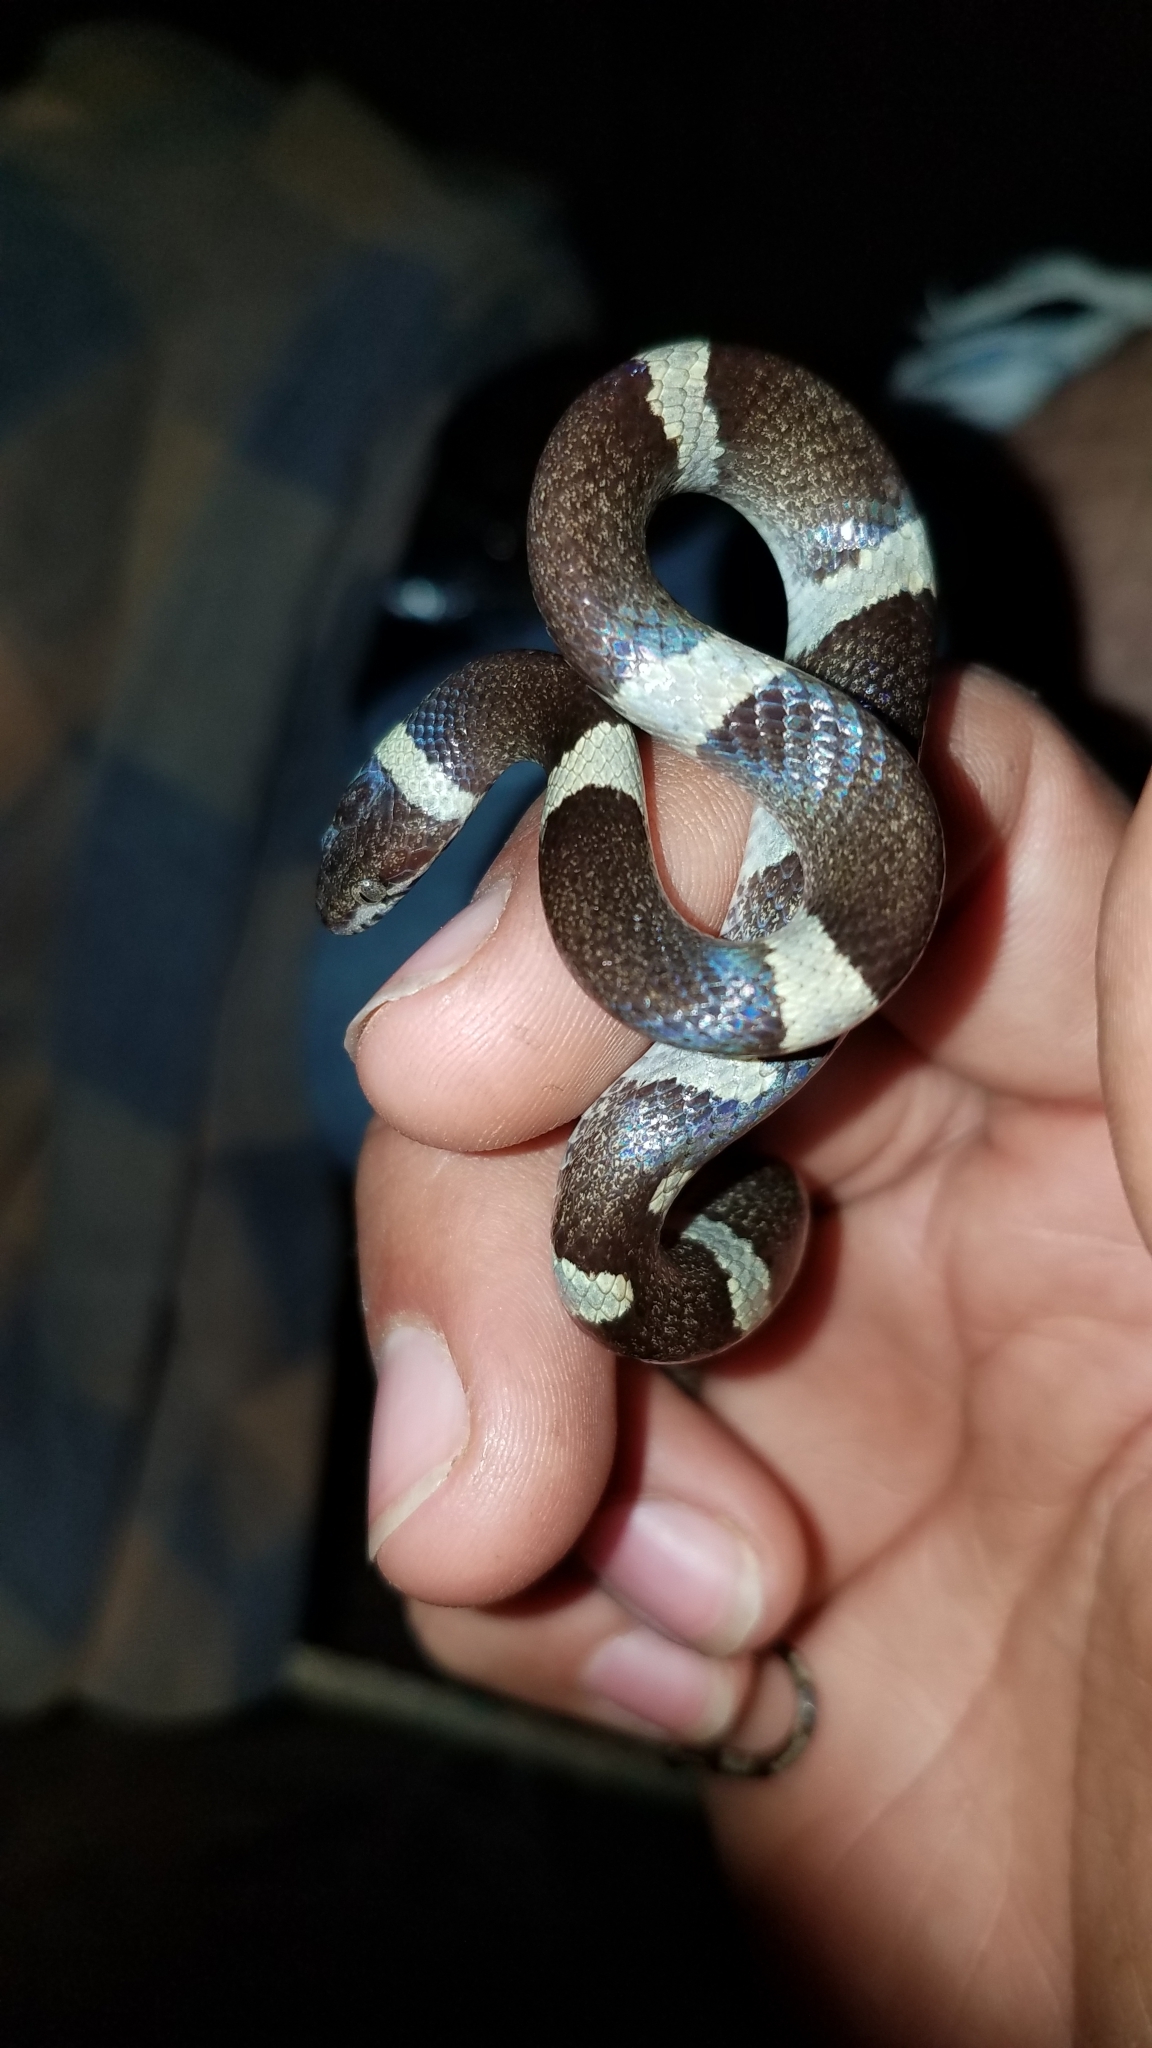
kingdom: Animalia
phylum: Chordata
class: Squamata
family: Colubridae
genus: Leptodeira
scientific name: Leptodeira nigrofasciata
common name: Black-banded cat-eyed snake
